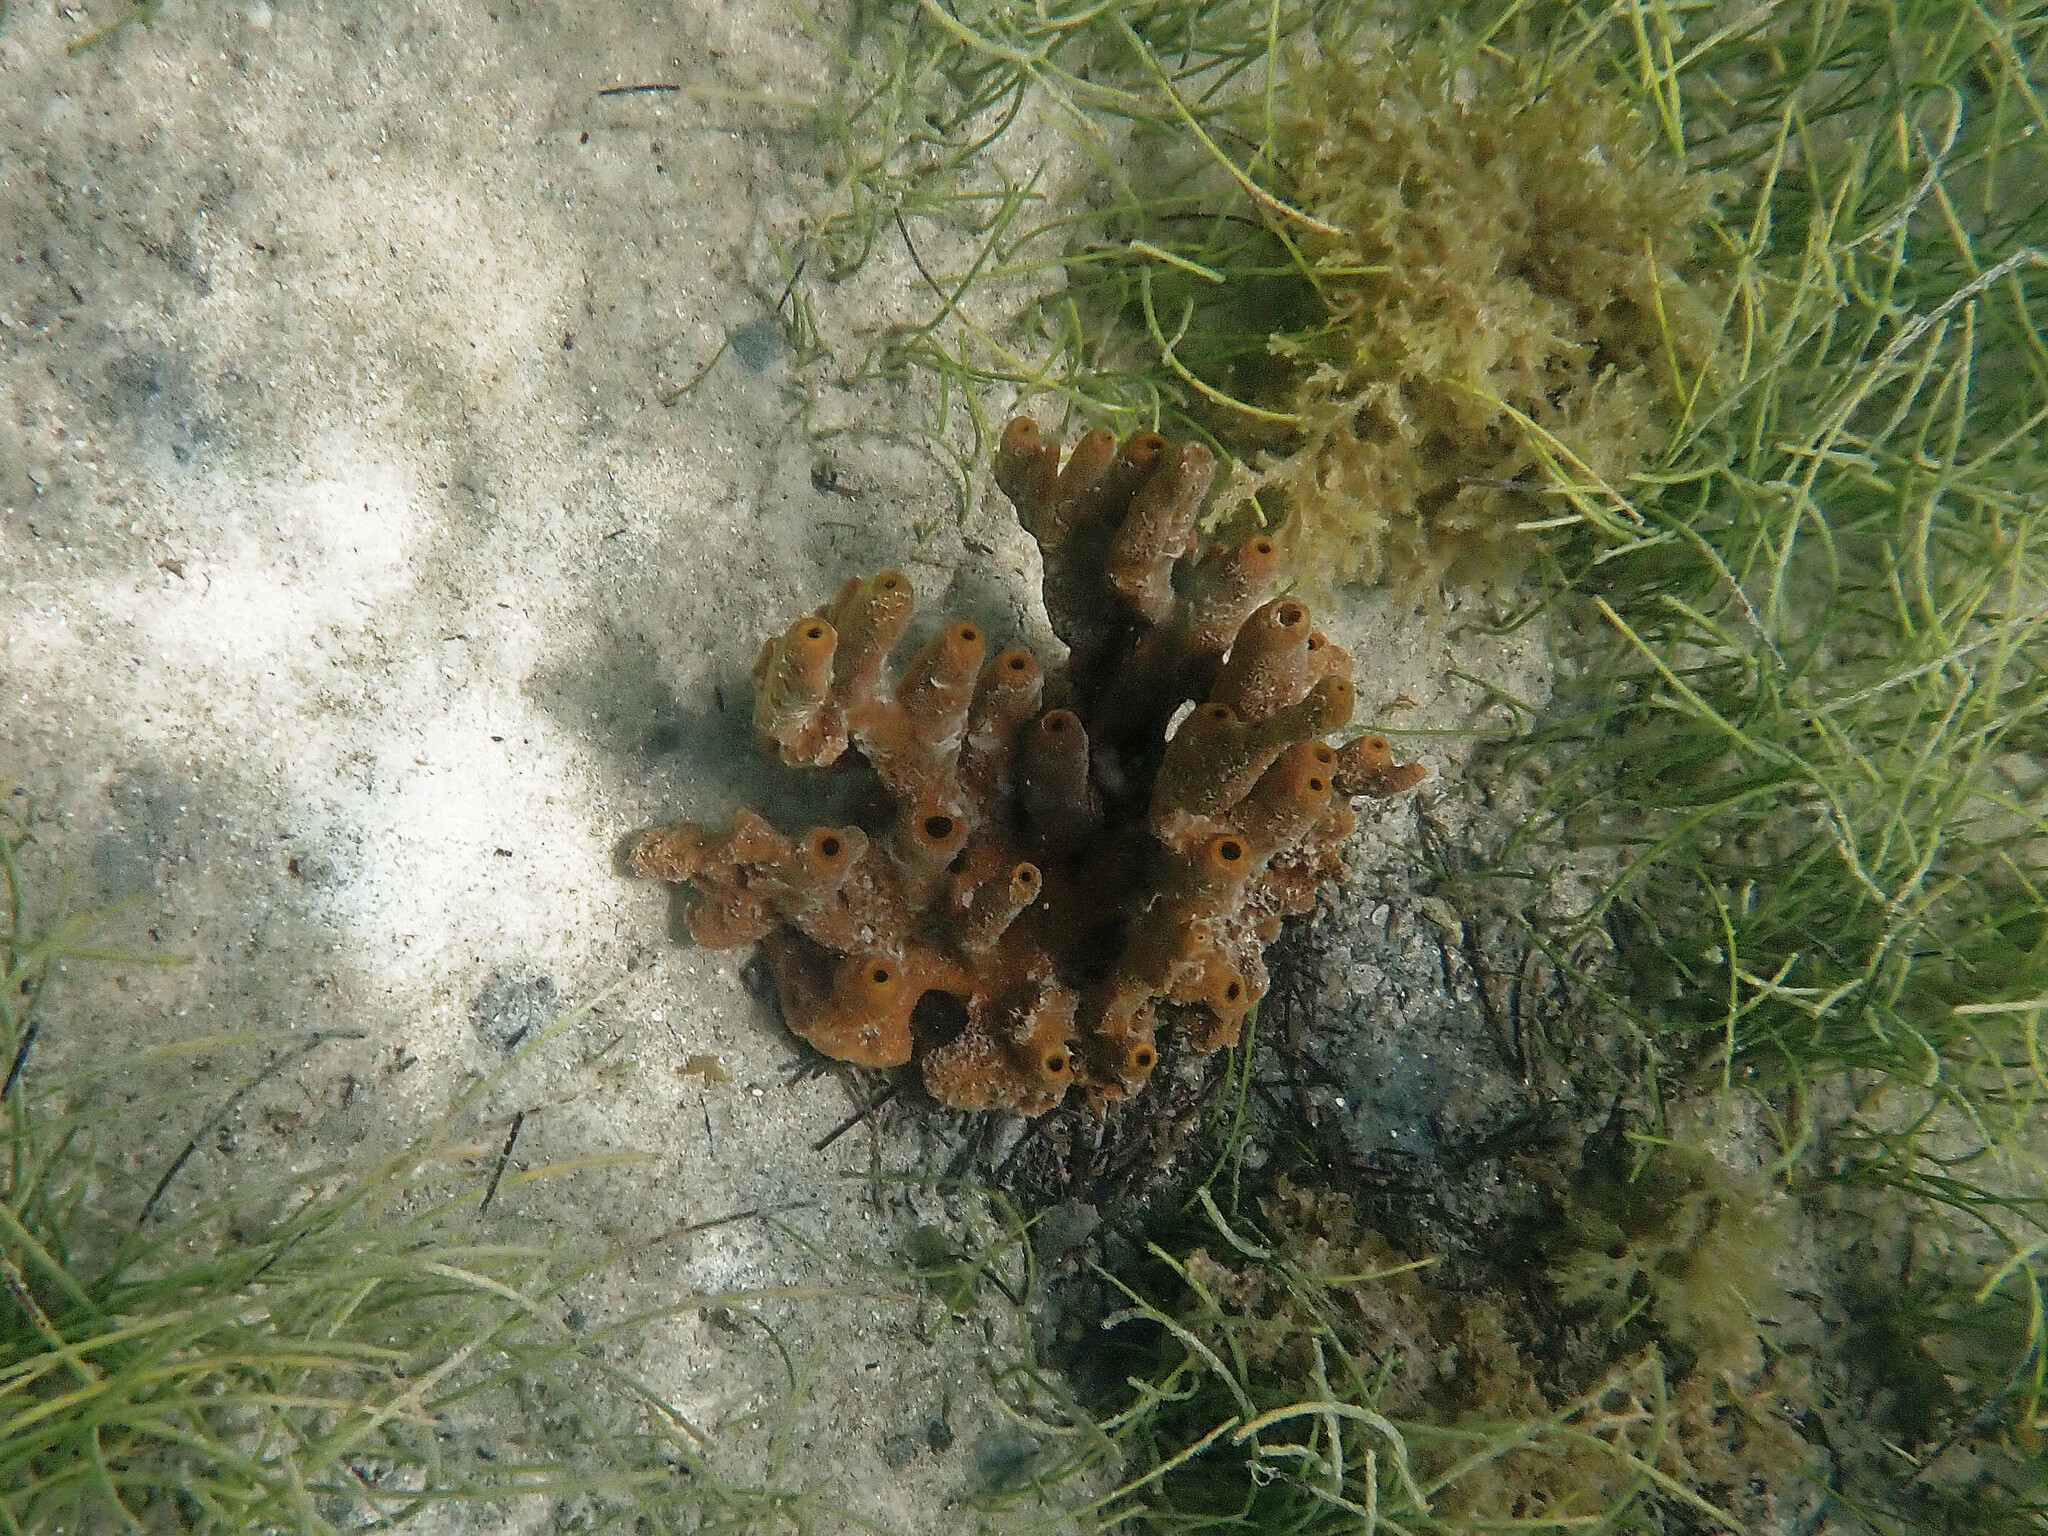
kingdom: Animalia
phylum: Porifera
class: Demospongiae
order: Verongiida
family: Aplysinidae
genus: Aplysina
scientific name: Aplysina fistularis
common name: Candle sponge
